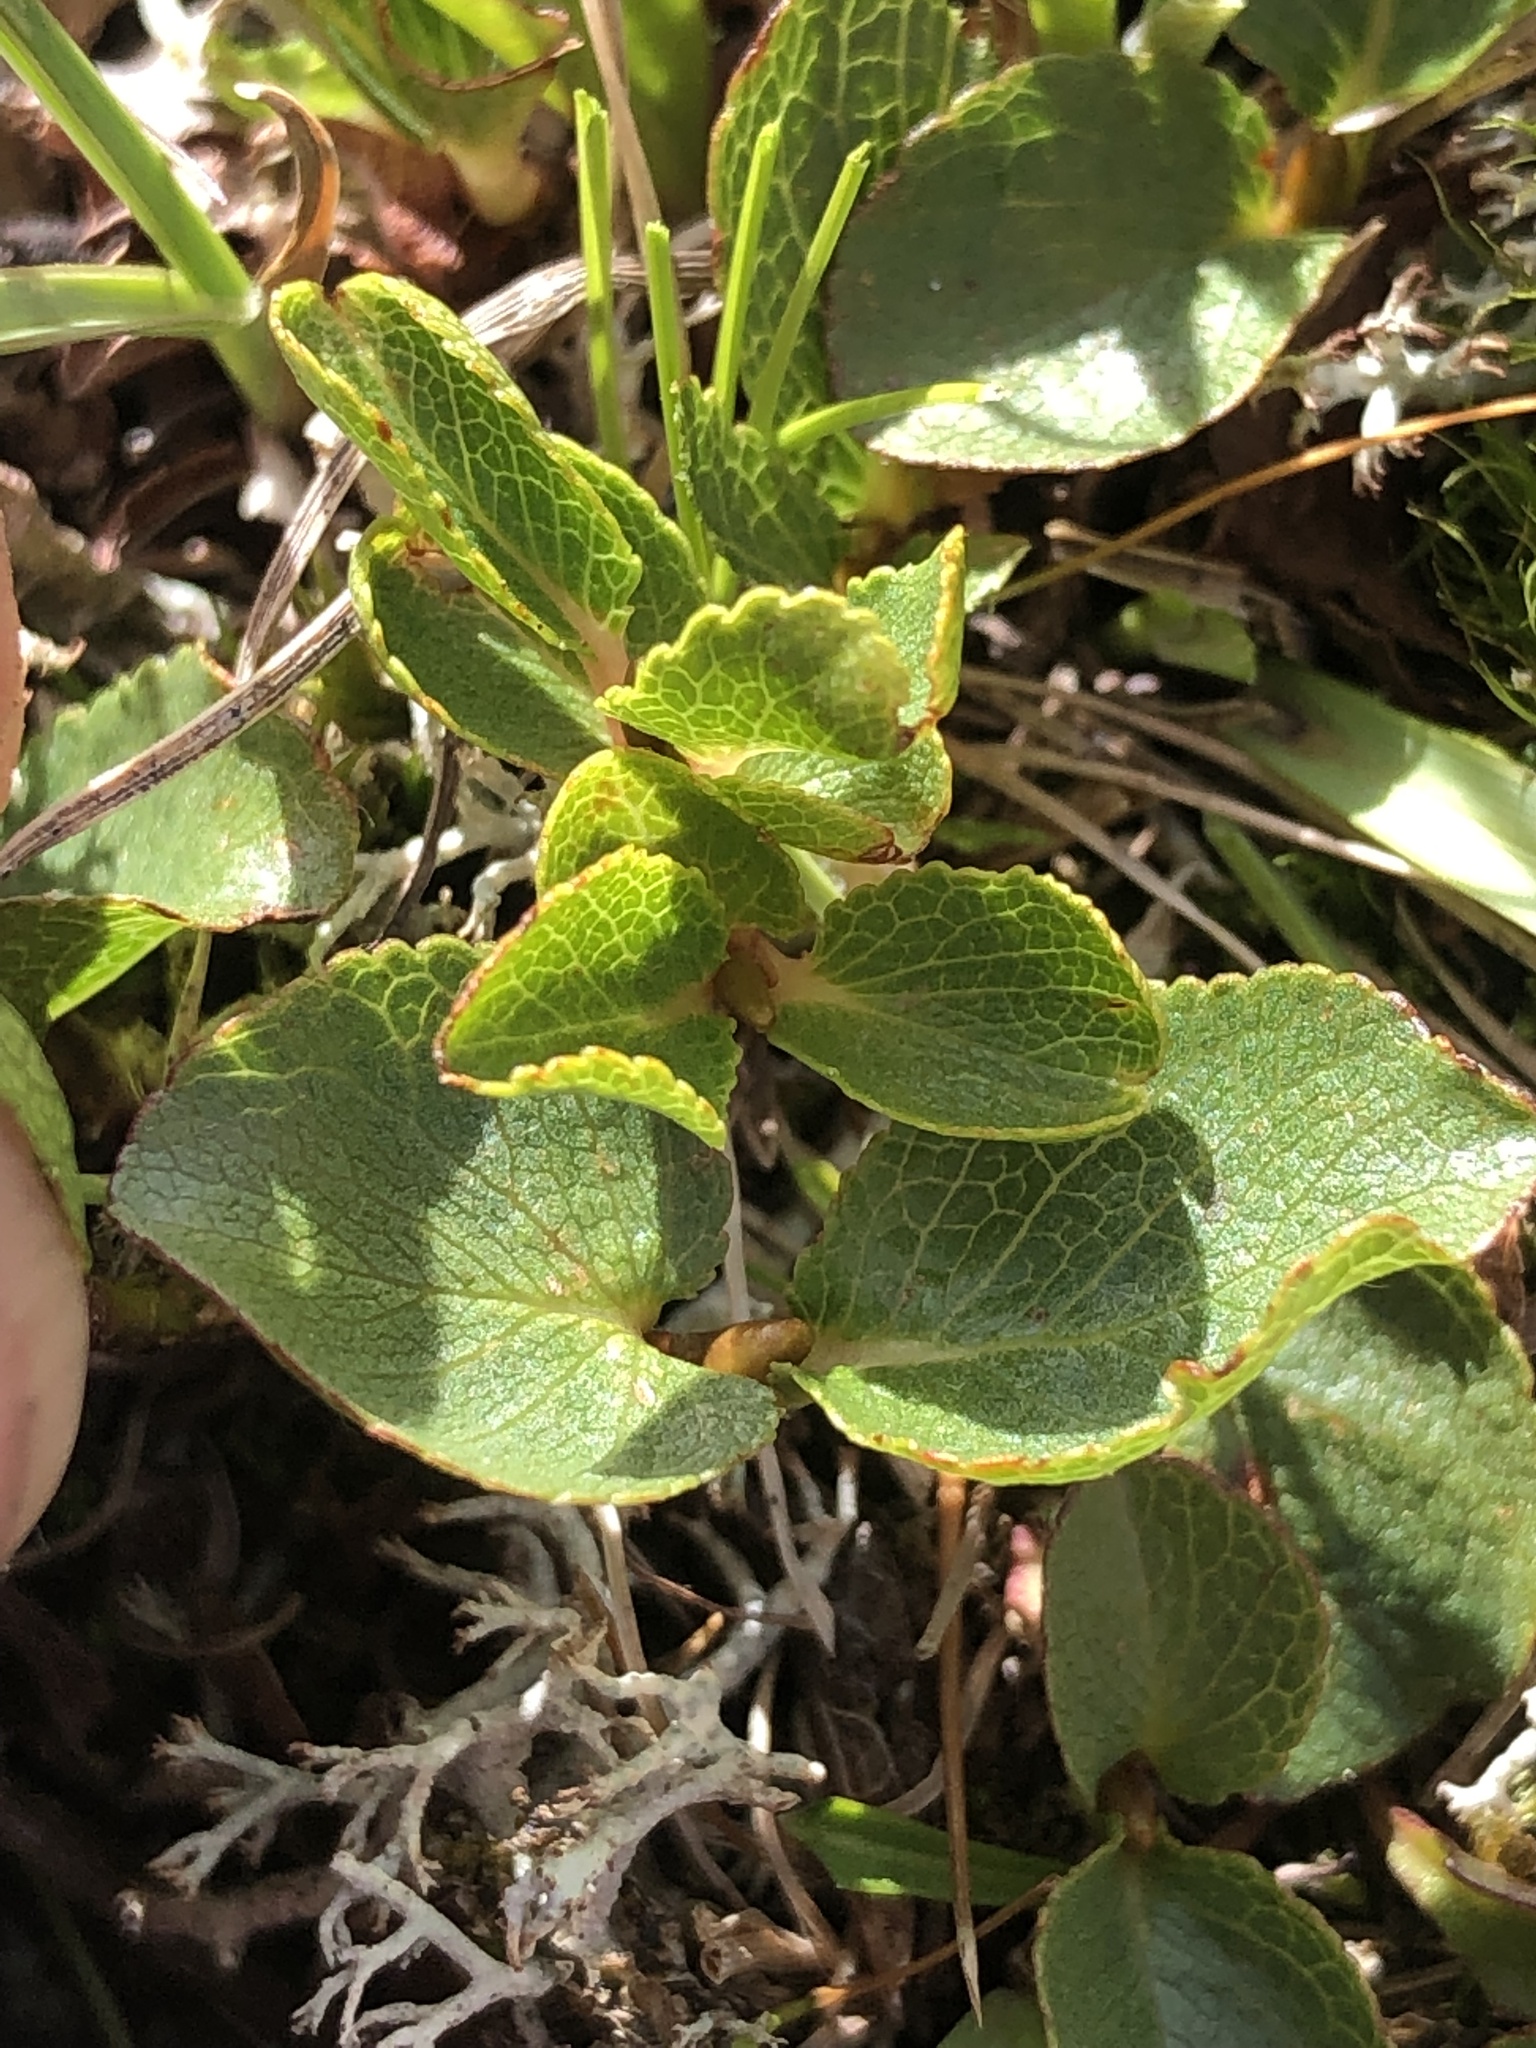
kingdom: Plantae
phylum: Tracheophyta
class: Magnoliopsida
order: Malpighiales
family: Salicaceae
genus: Salix
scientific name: Salix herbacea
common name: Dwarf willow
